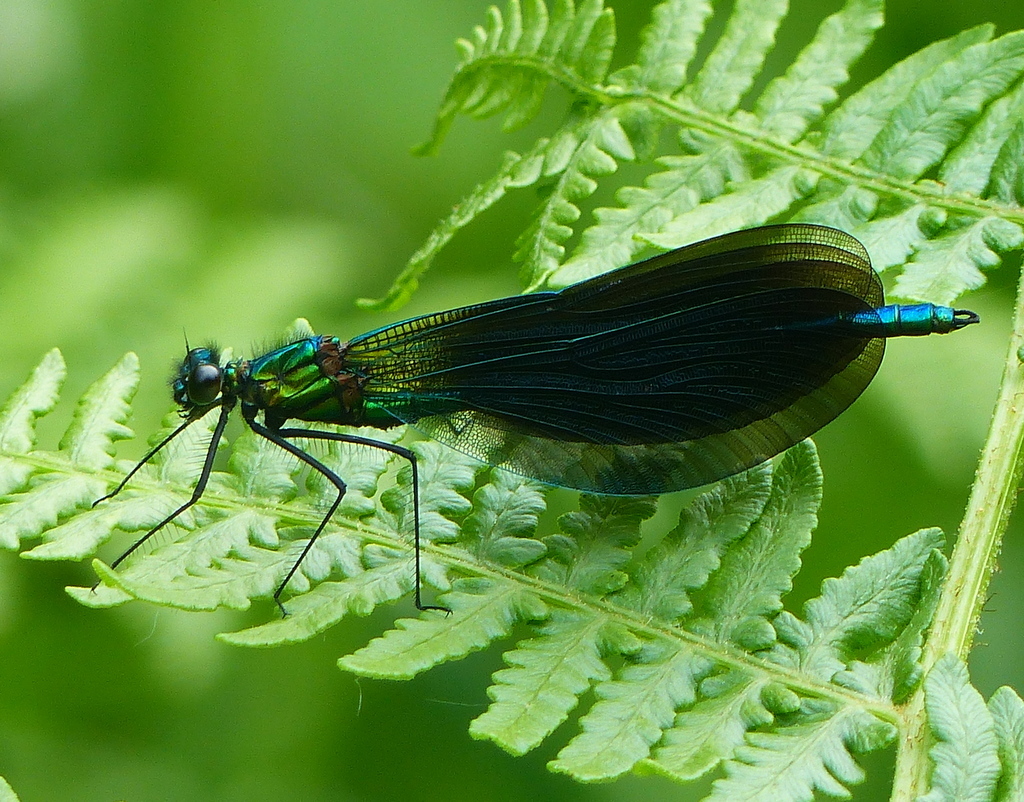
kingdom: Animalia
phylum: Arthropoda
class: Insecta
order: Odonata
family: Calopterygidae
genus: Calopteryx
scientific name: Calopteryx virgo
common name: Beautiful demoiselle
